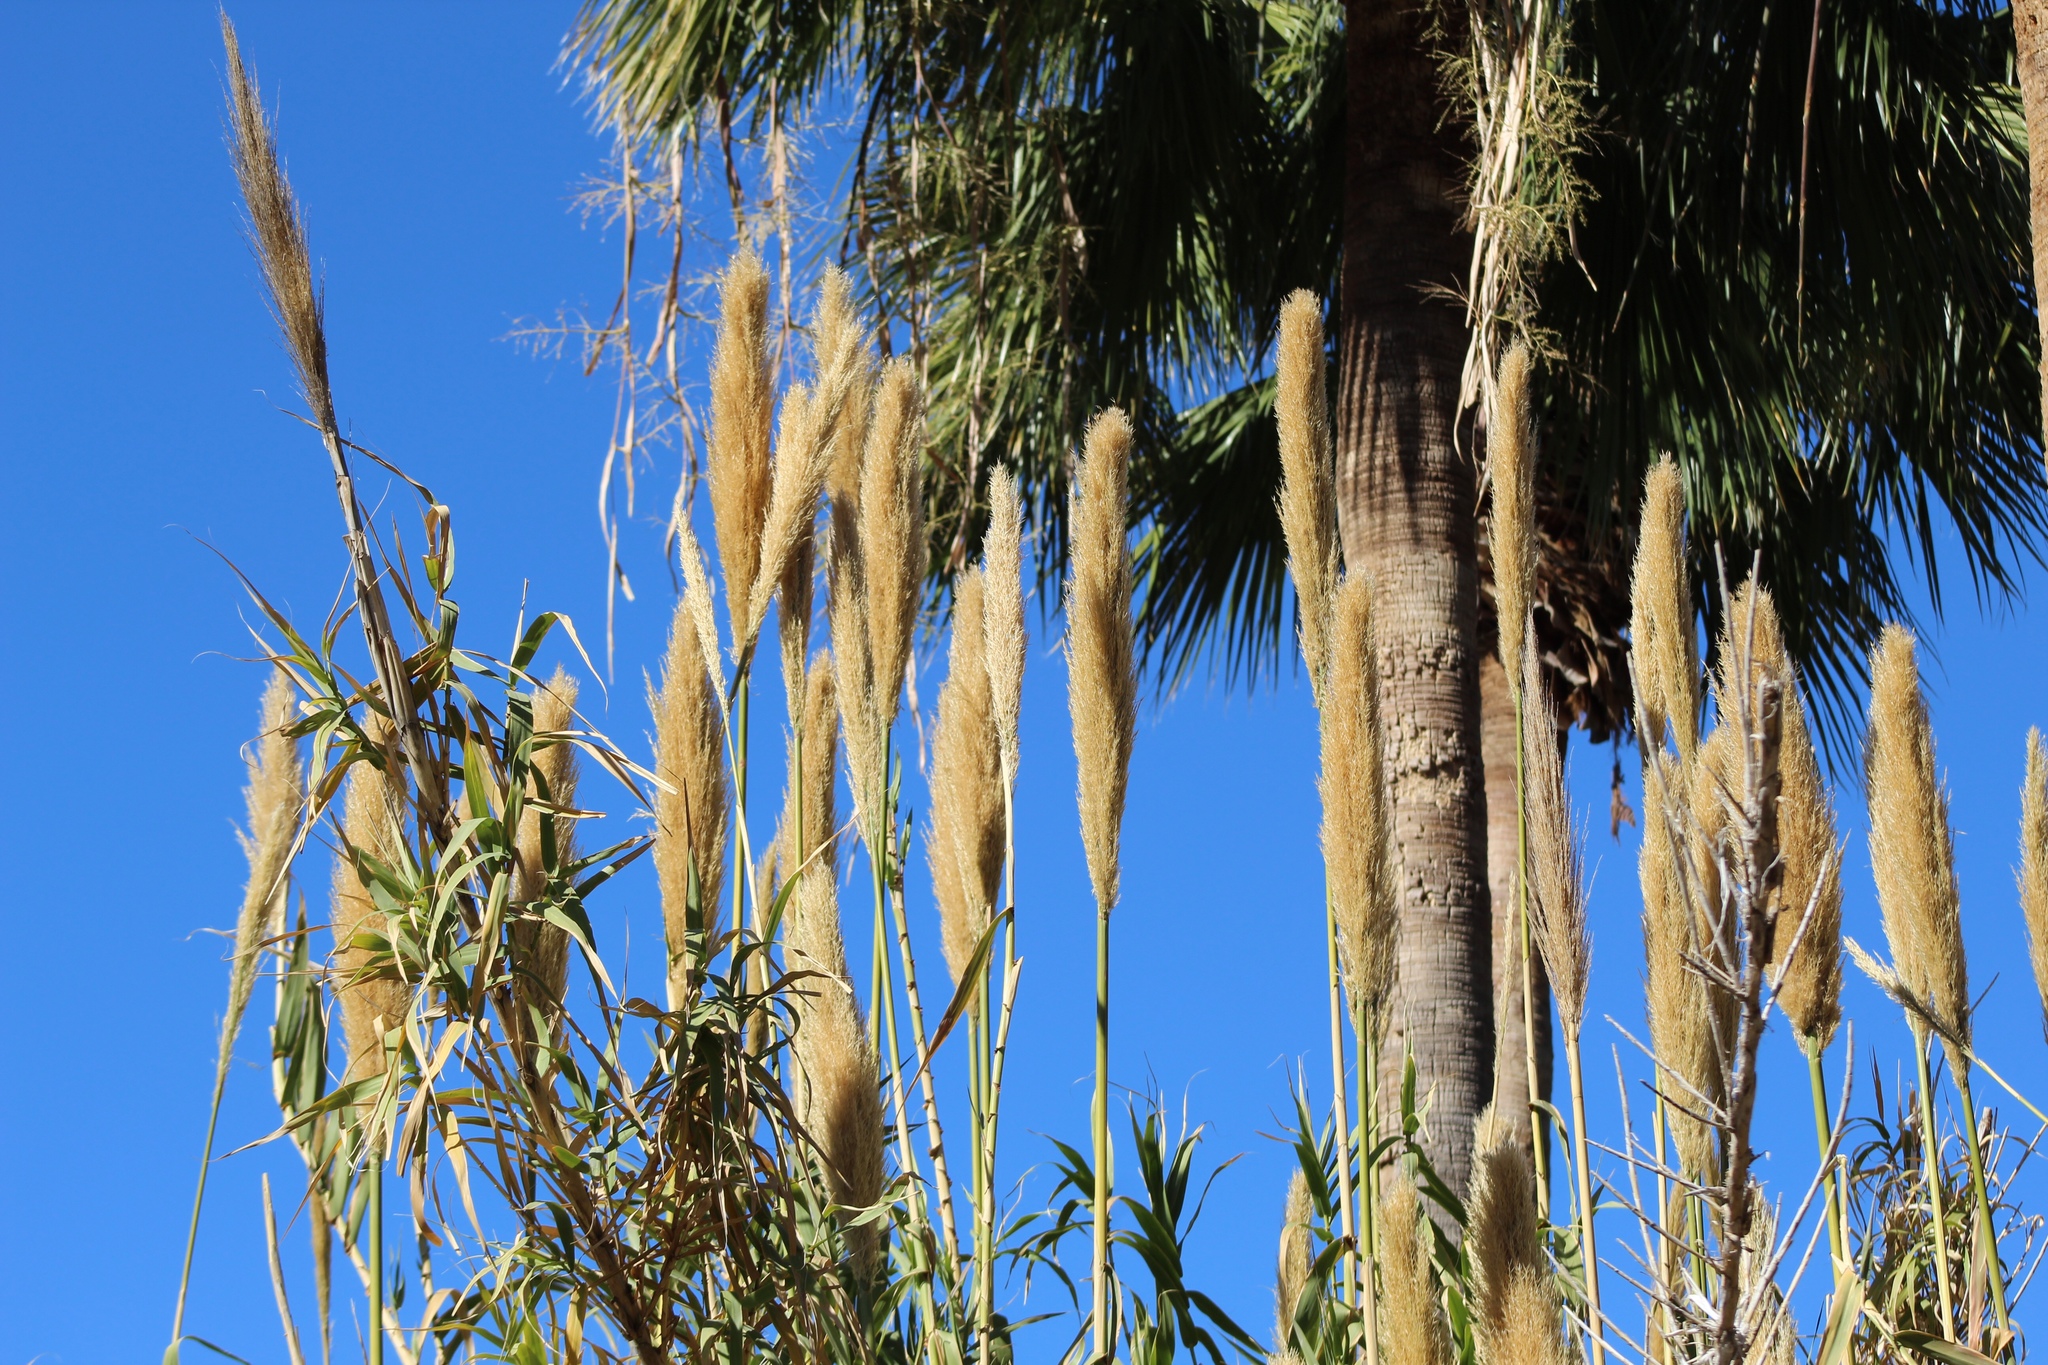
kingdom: Plantae
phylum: Tracheophyta
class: Liliopsida
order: Poales
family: Poaceae
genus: Arundo
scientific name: Arundo donax
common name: Giant reed
